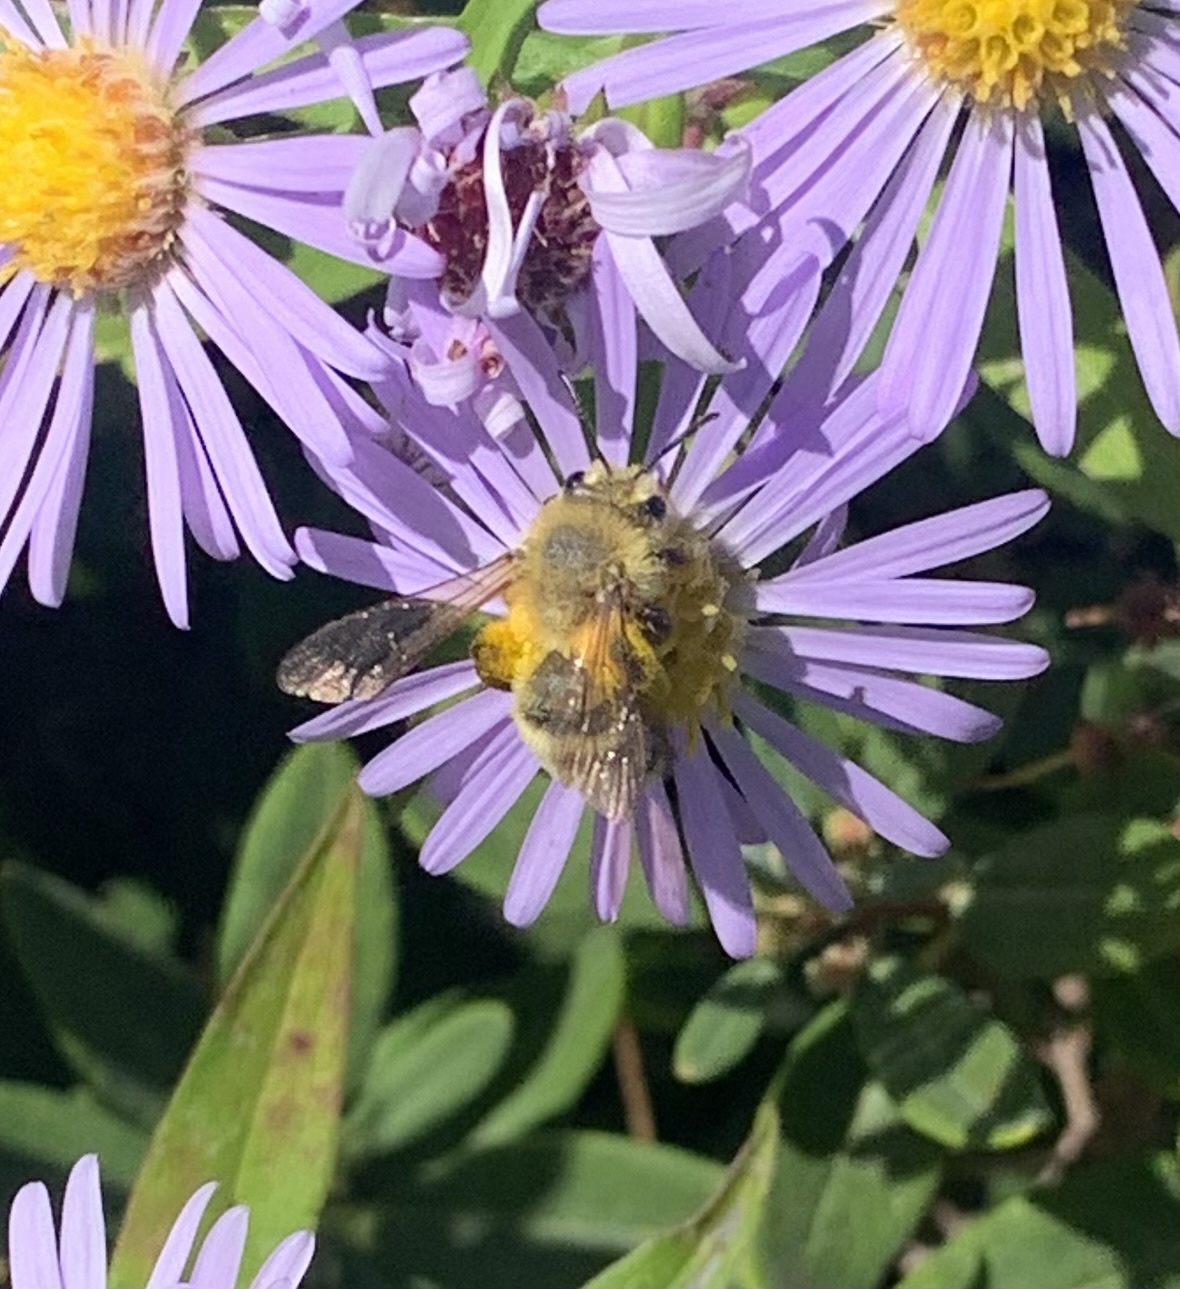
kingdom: Animalia
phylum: Arthropoda
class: Insecta
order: Hymenoptera
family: Andrenidae
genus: Andrena
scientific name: Andrena hirticincta
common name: Hairy-banded mining bee
